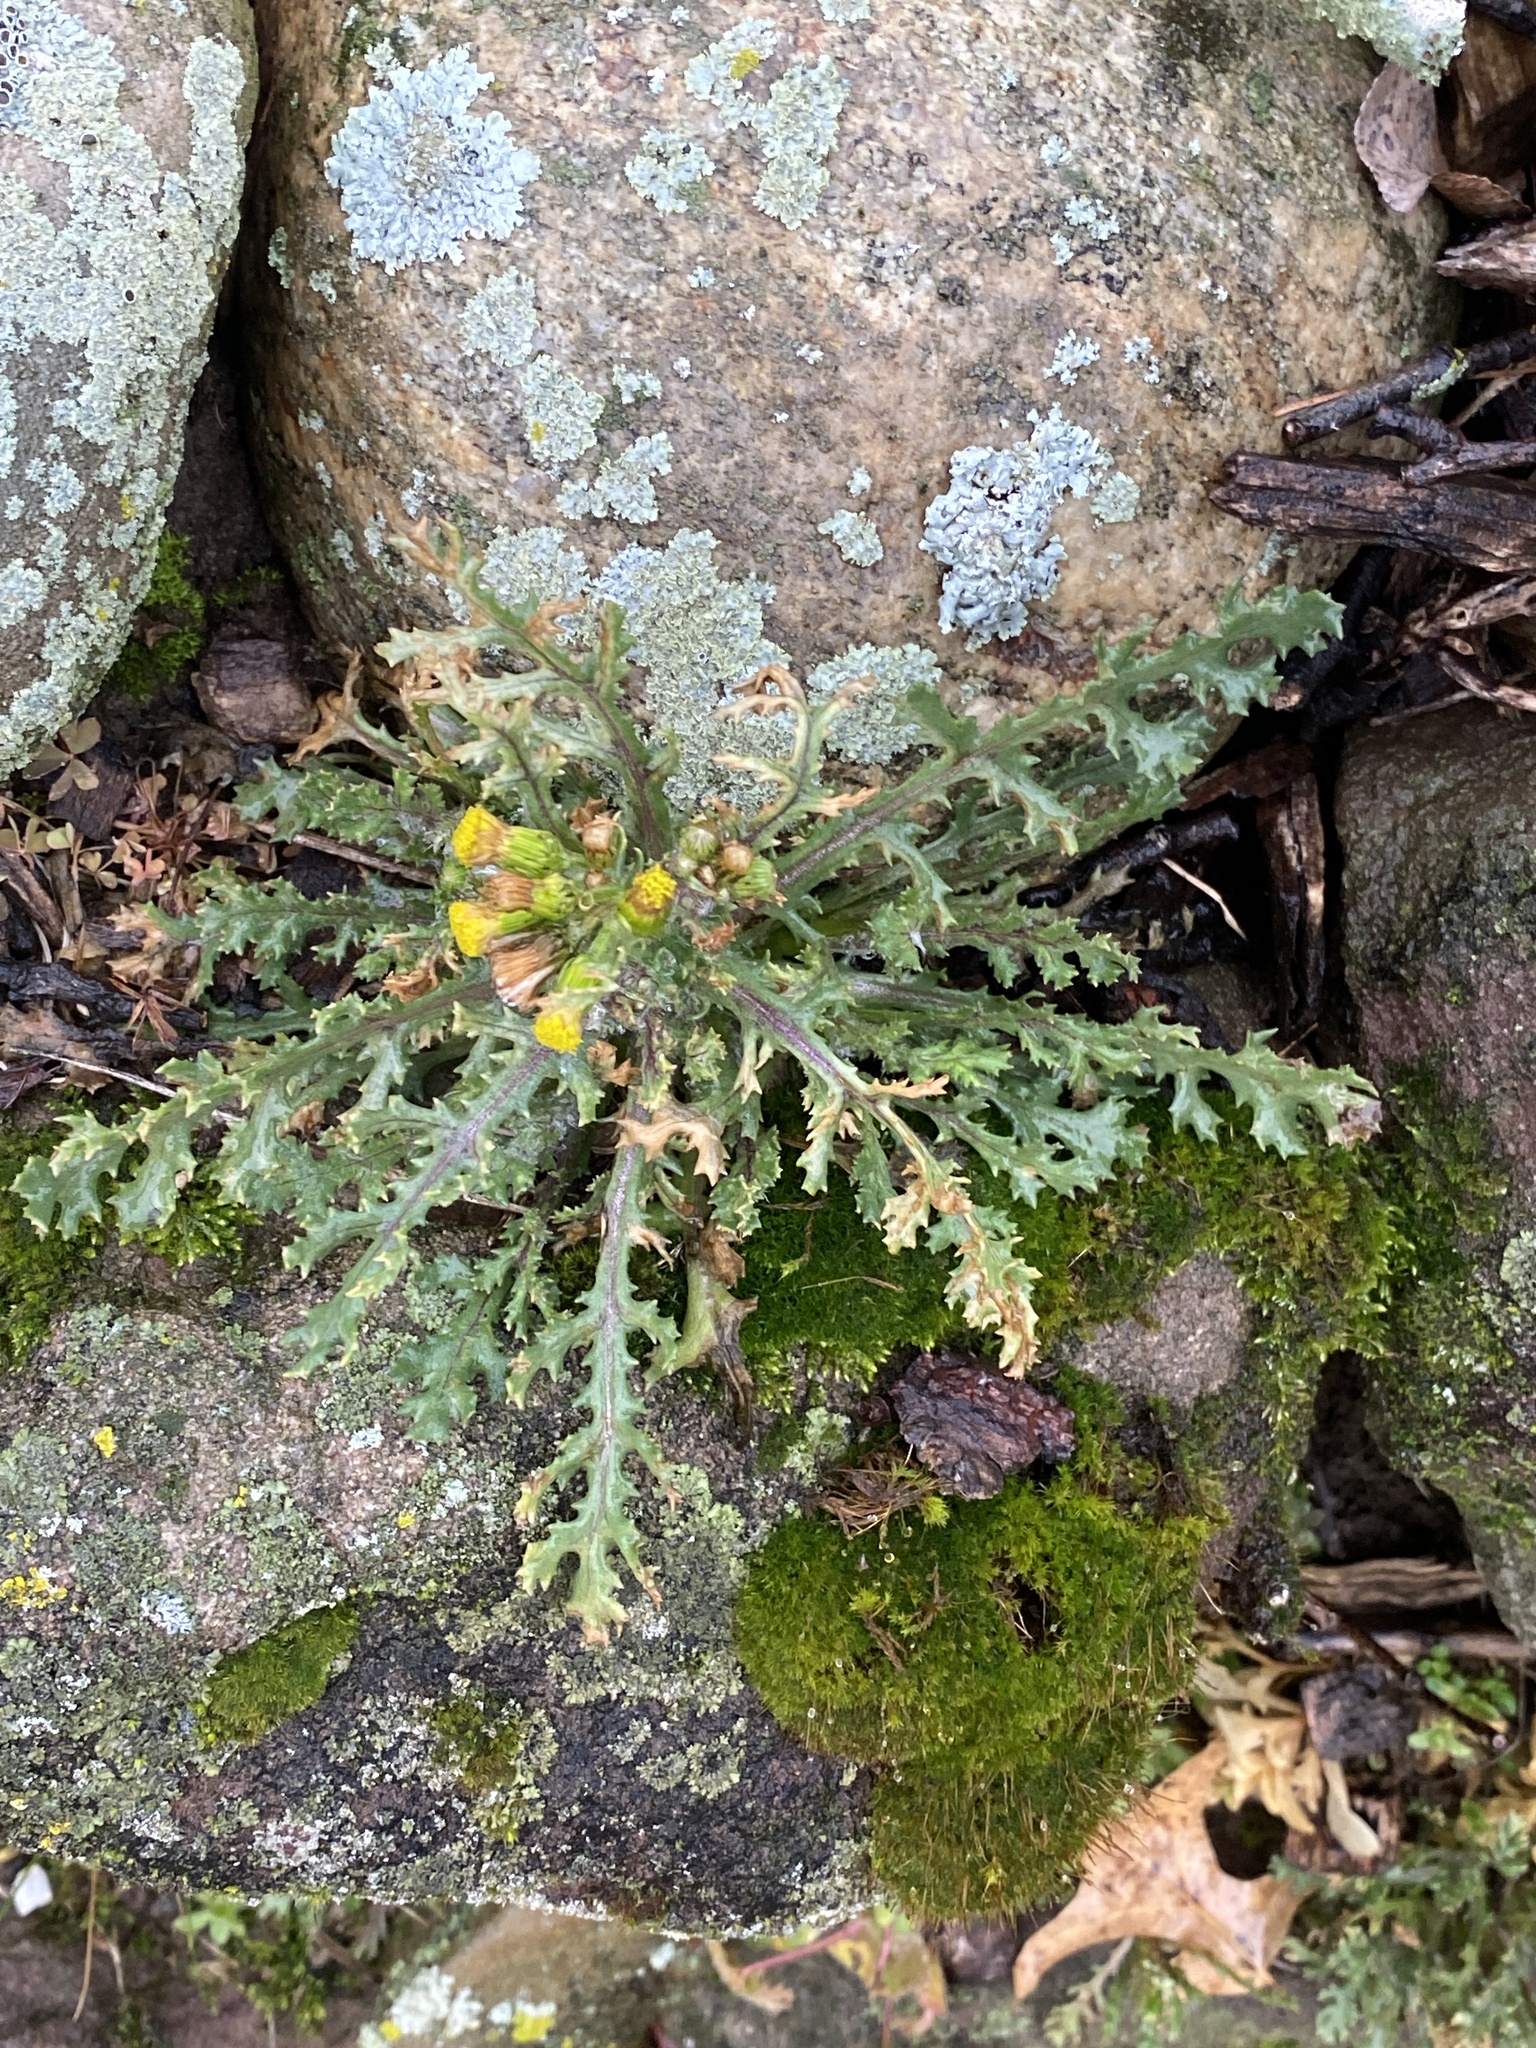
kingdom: Plantae
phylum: Tracheophyta
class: Magnoliopsida
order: Asterales
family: Asteraceae
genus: Senecio
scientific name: Senecio vulgaris
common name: Old-man-in-the-spring
